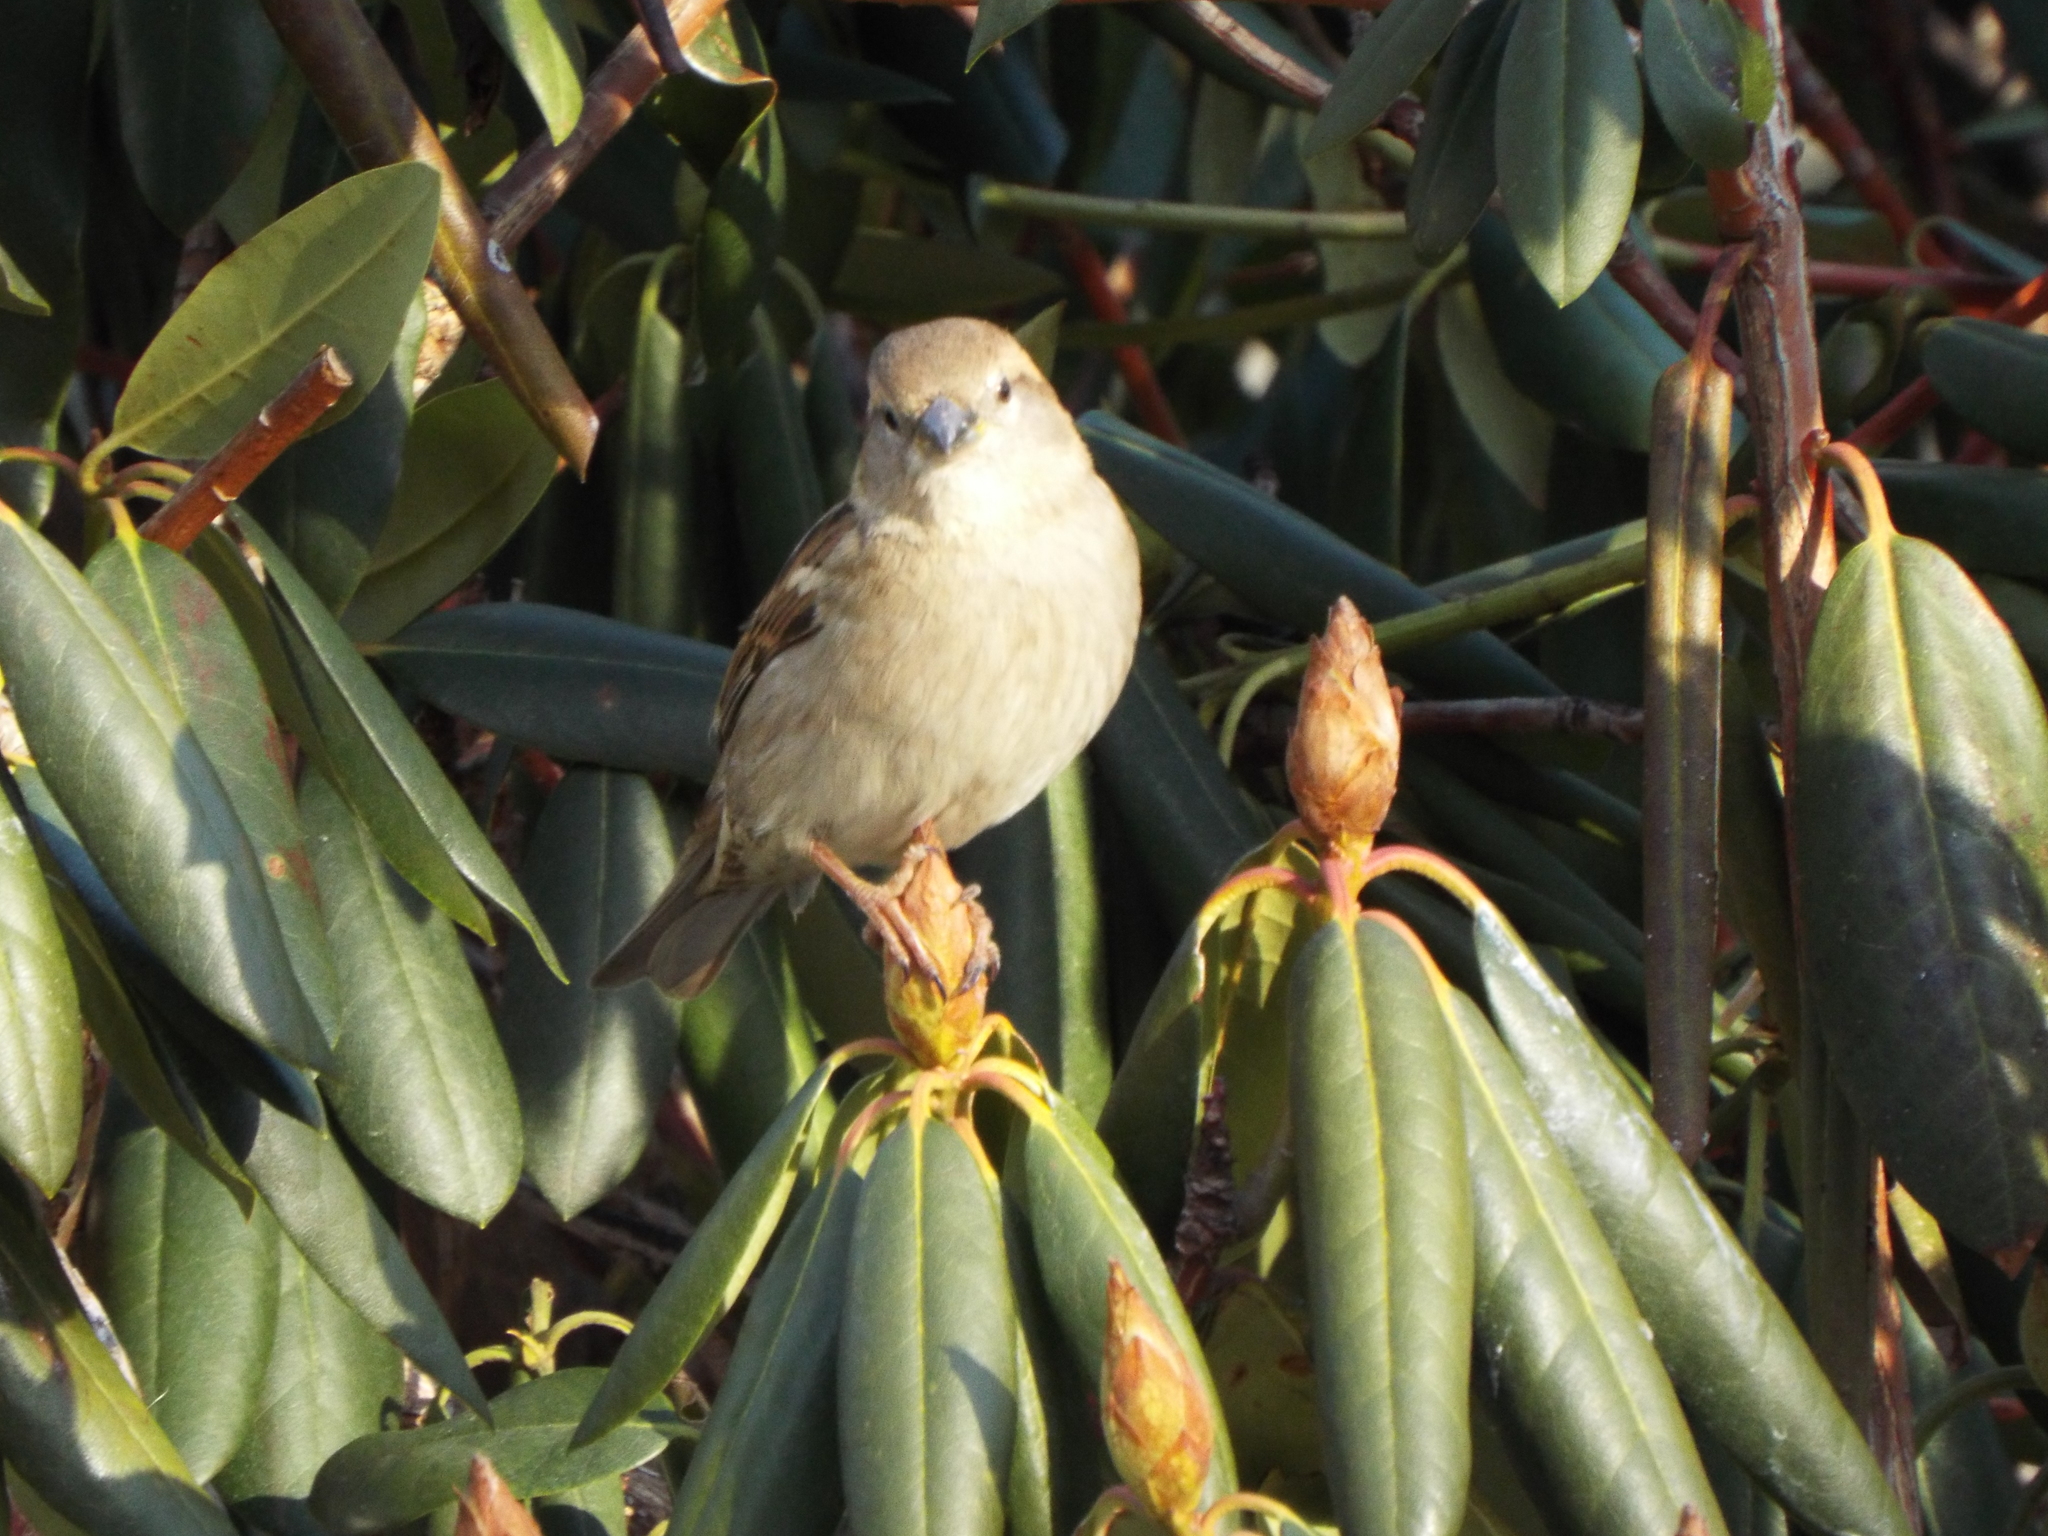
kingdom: Animalia
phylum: Chordata
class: Aves
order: Passeriformes
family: Passeridae
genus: Passer
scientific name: Passer domesticus
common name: House sparrow
